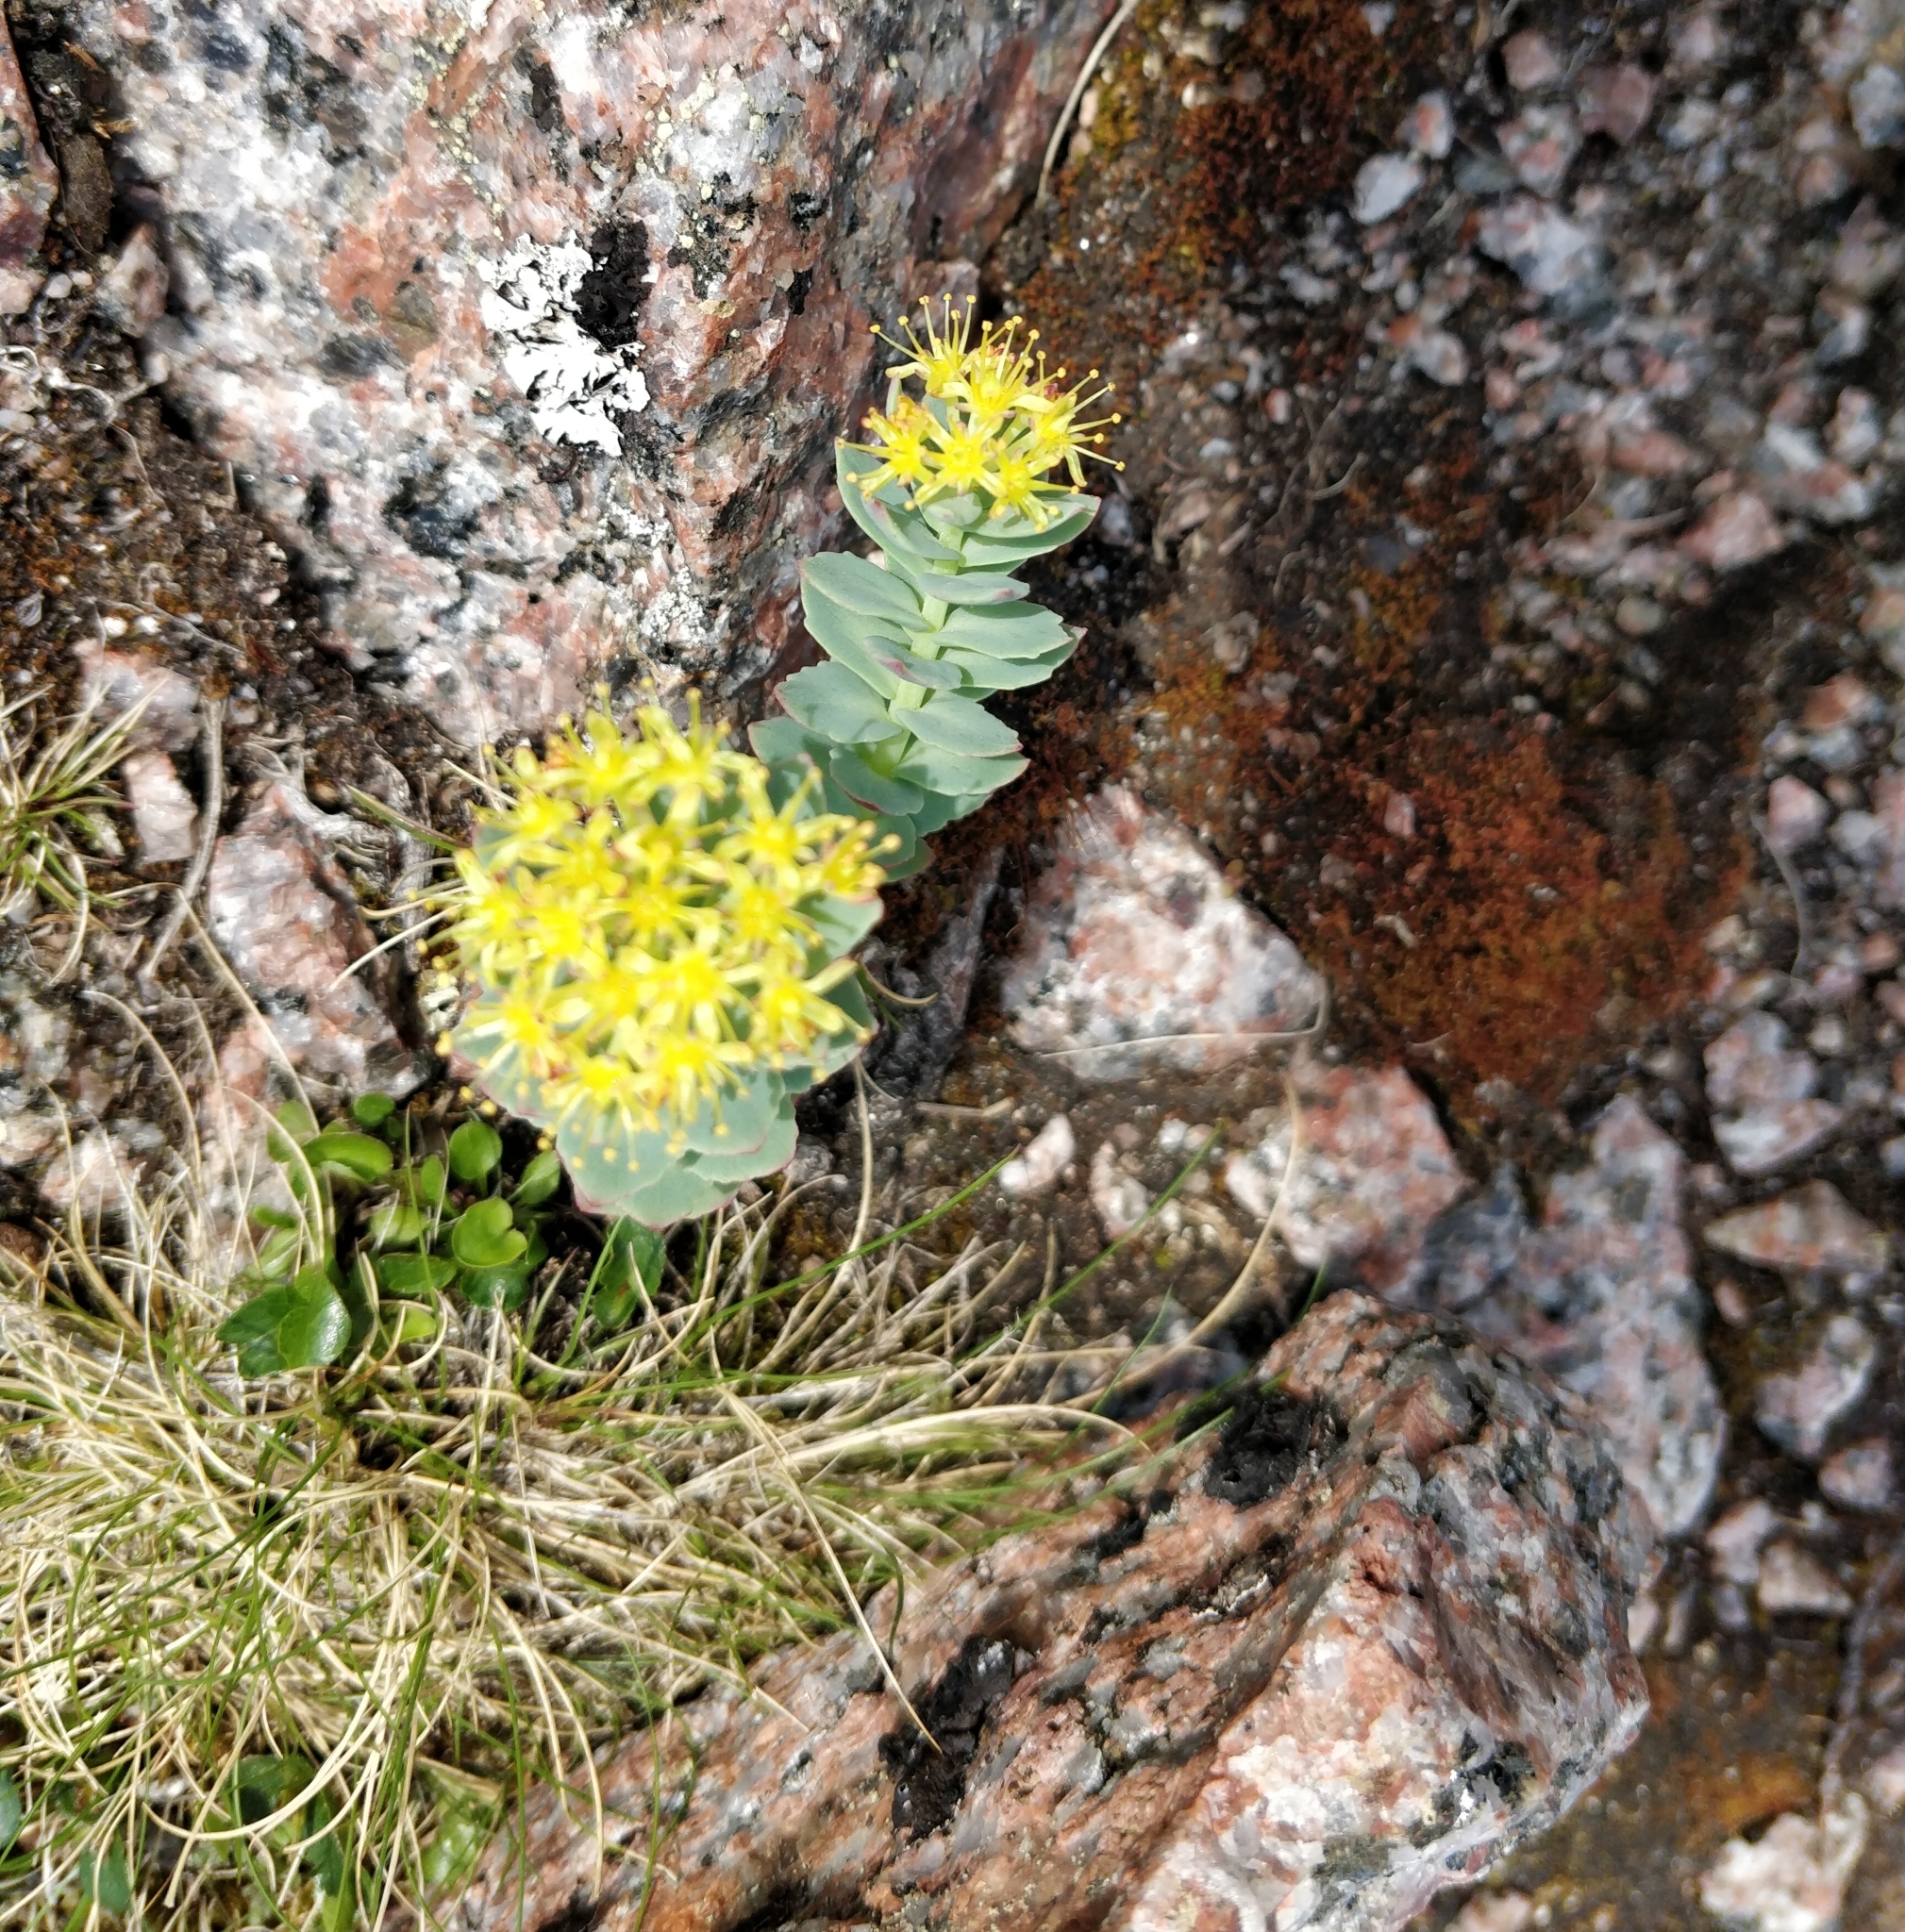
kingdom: Plantae
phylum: Tracheophyta
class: Magnoliopsida
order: Saxifragales
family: Crassulaceae
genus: Rhodiola
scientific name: Rhodiola rosea
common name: Roseroot
